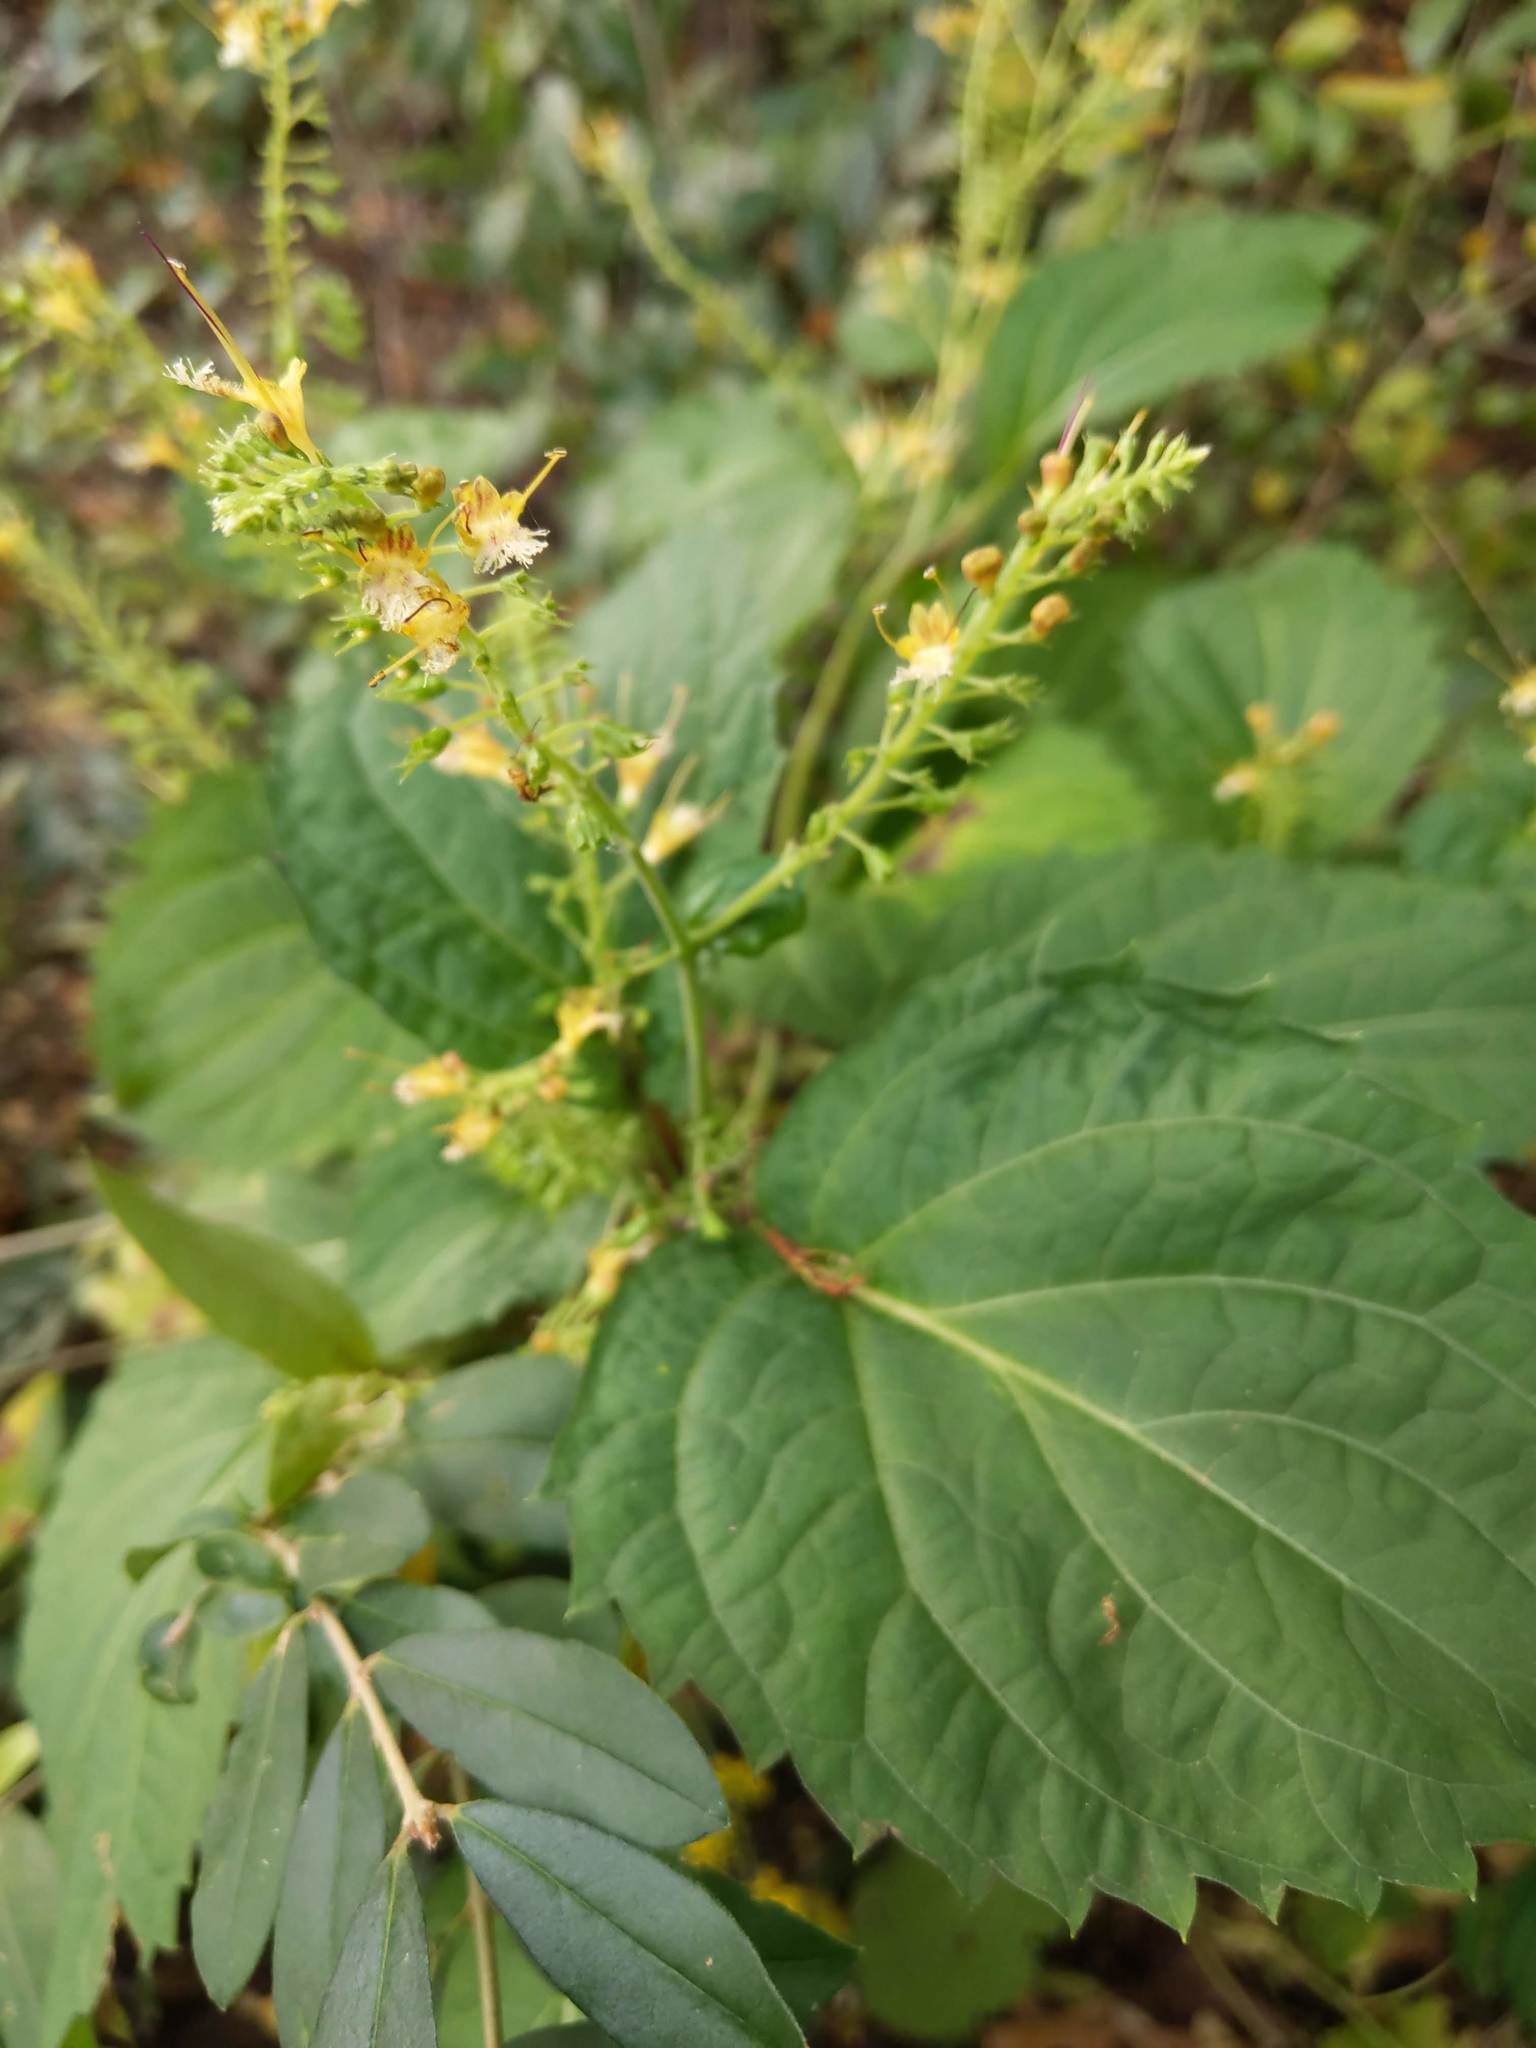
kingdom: Plantae
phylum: Tracheophyta
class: Magnoliopsida
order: Lamiales
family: Lamiaceae
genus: Collinsonia
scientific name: Collinsonia canadensis
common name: Northern horsebalm
